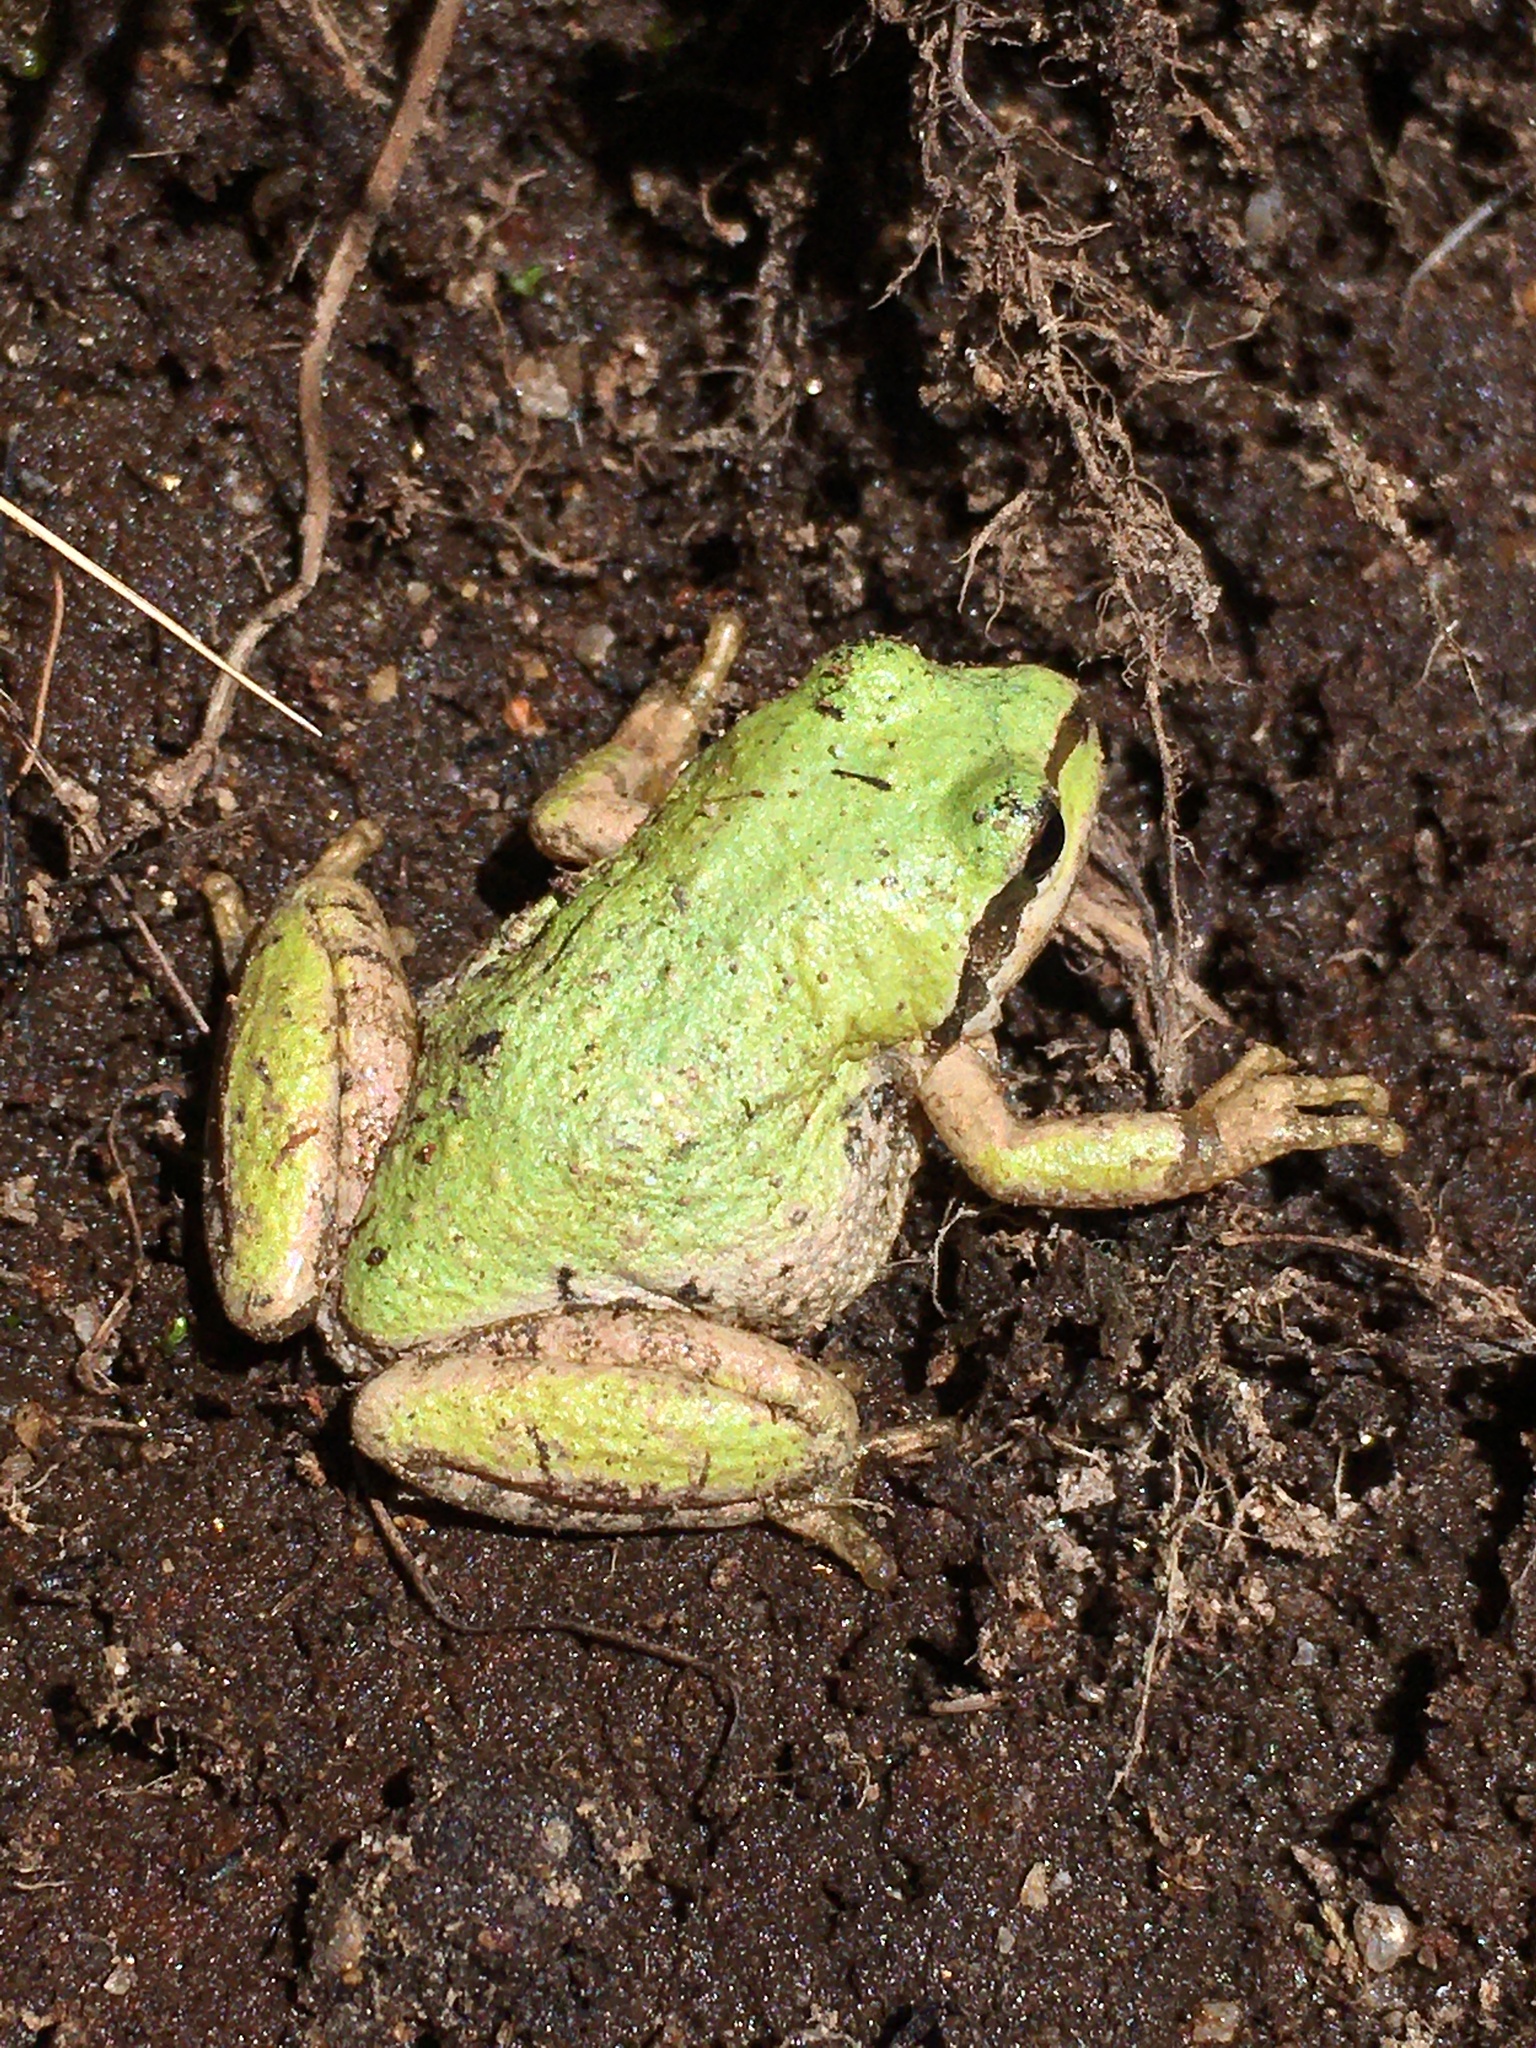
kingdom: Animalia
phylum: Chordata
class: Amphibia
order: Anura
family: Hylidae
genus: Pseudacris
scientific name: Pseudacris regilla
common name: Pacific chorus frog
